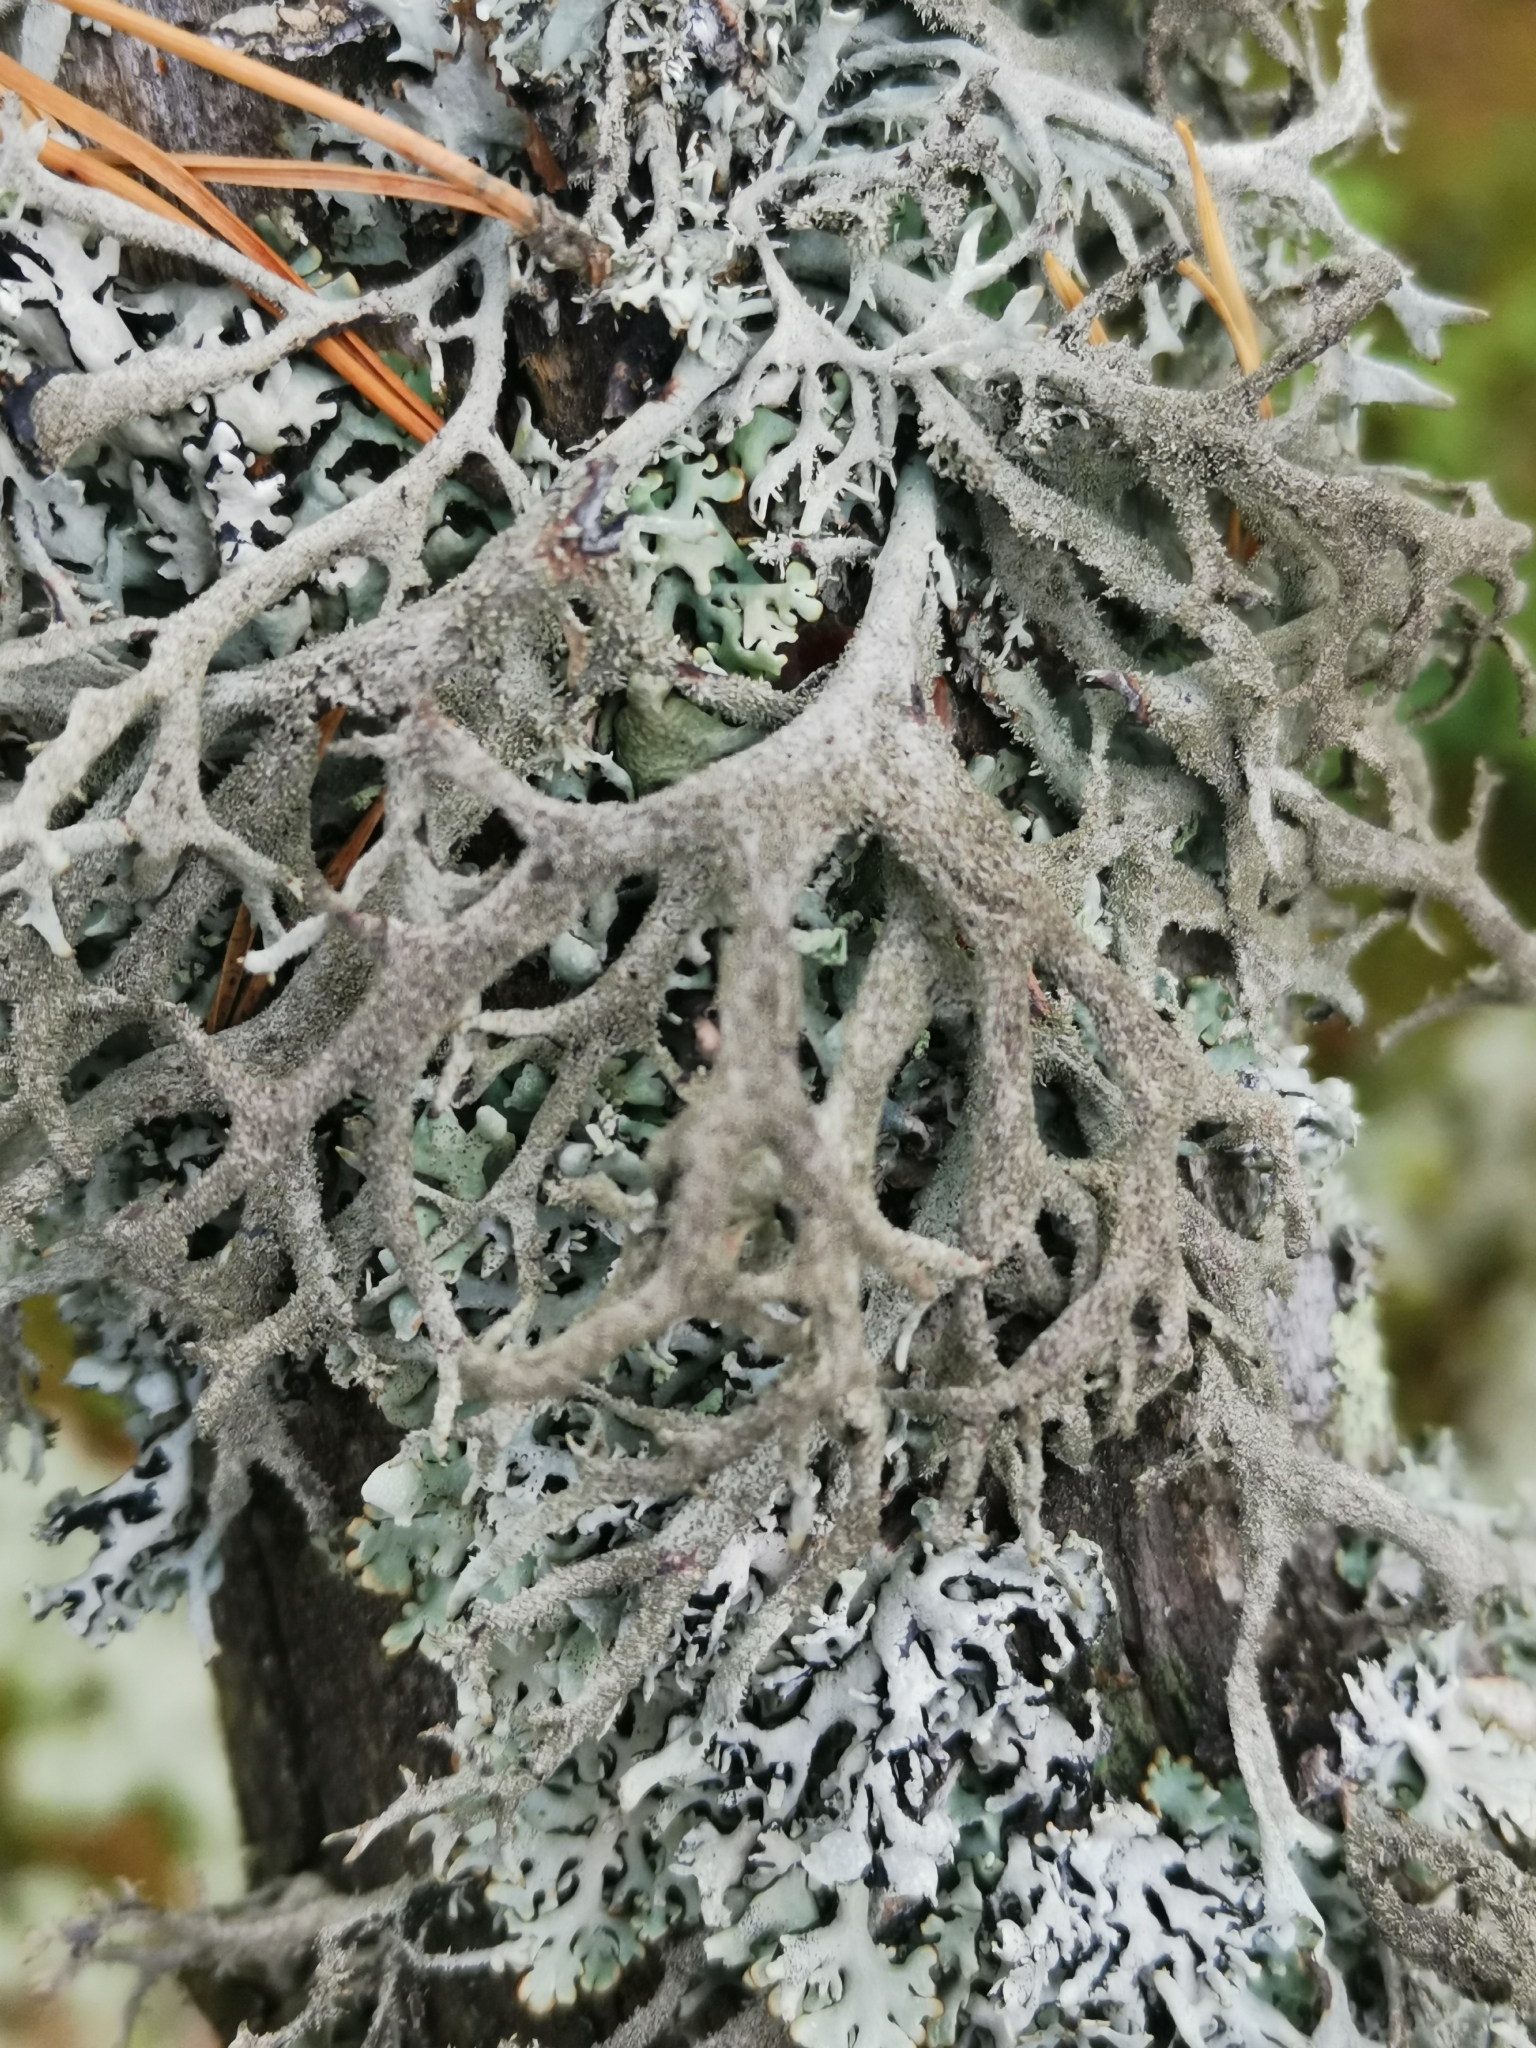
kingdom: Fungi
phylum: Ascomycota
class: Lecanoromycetes
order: Lecanorales
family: Parmeliaceae
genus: Pseudevernia
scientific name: Pseudevernia furfuracea
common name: Tree moss
